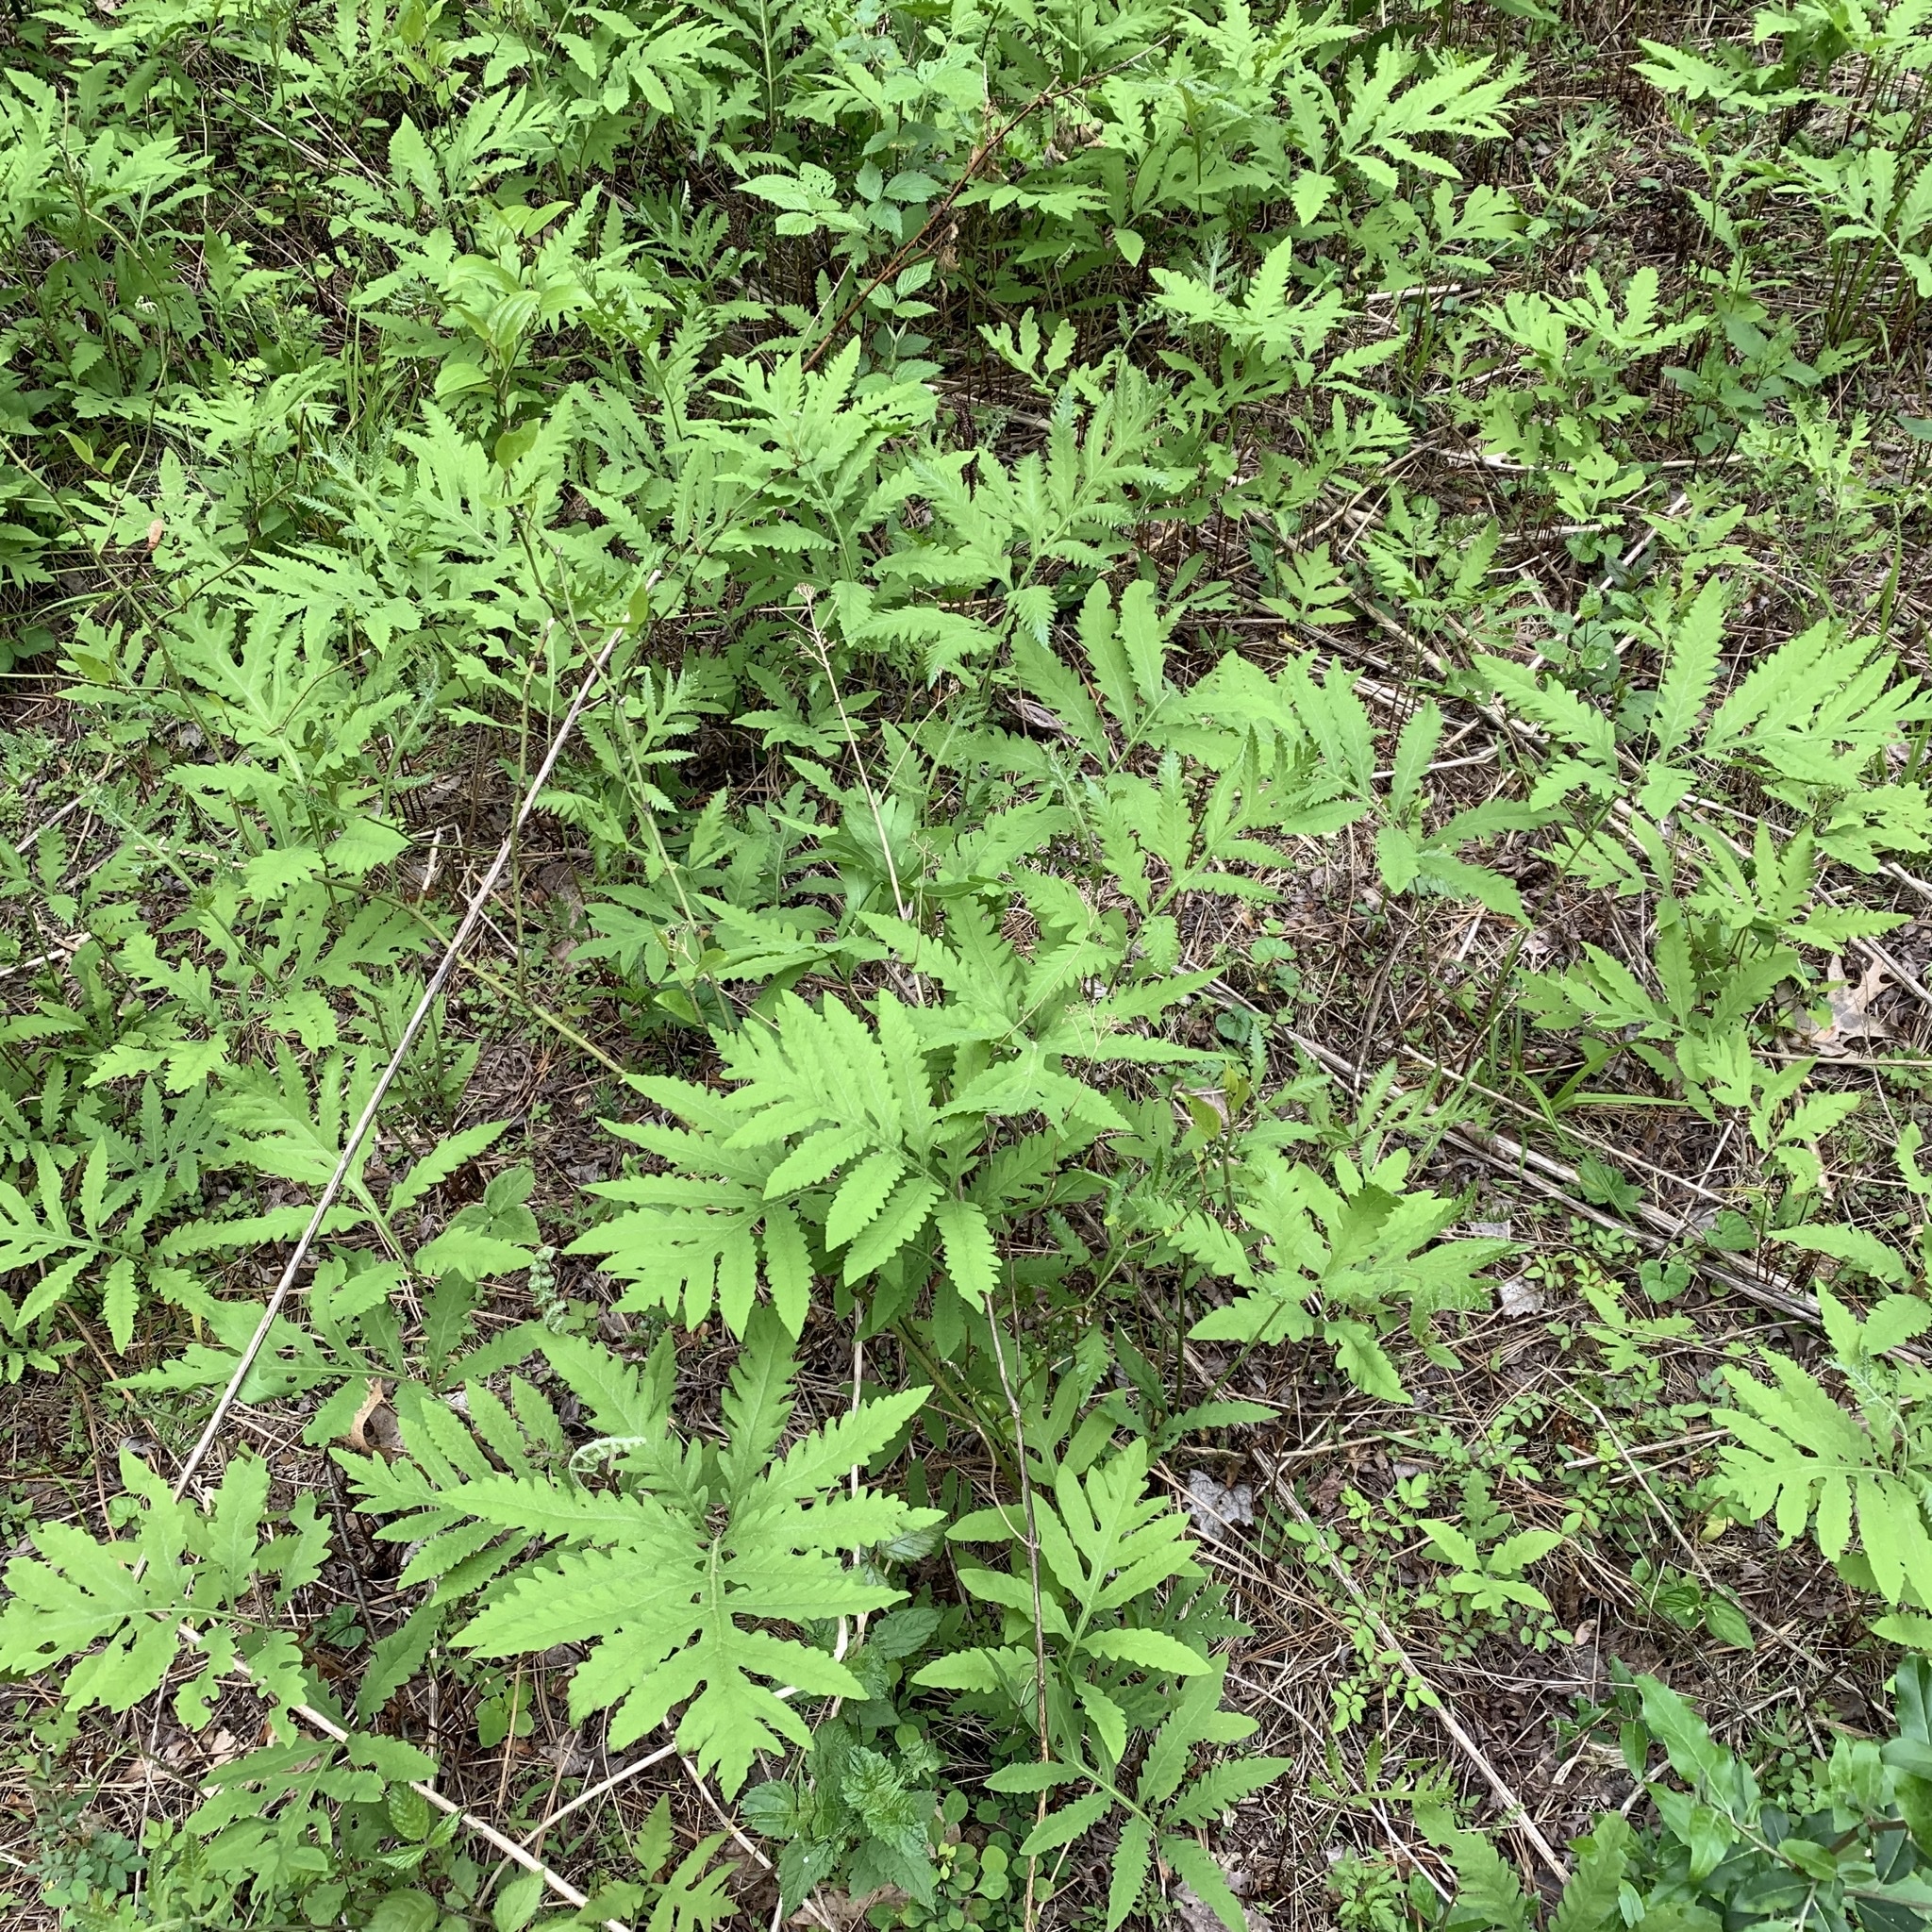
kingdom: Plantae
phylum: Tracheophyta
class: Polypodiopsida
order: Polypodiales
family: Onocleaceae
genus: Onoclea
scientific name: Onoclea sensibilis
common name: Sensitive fern
